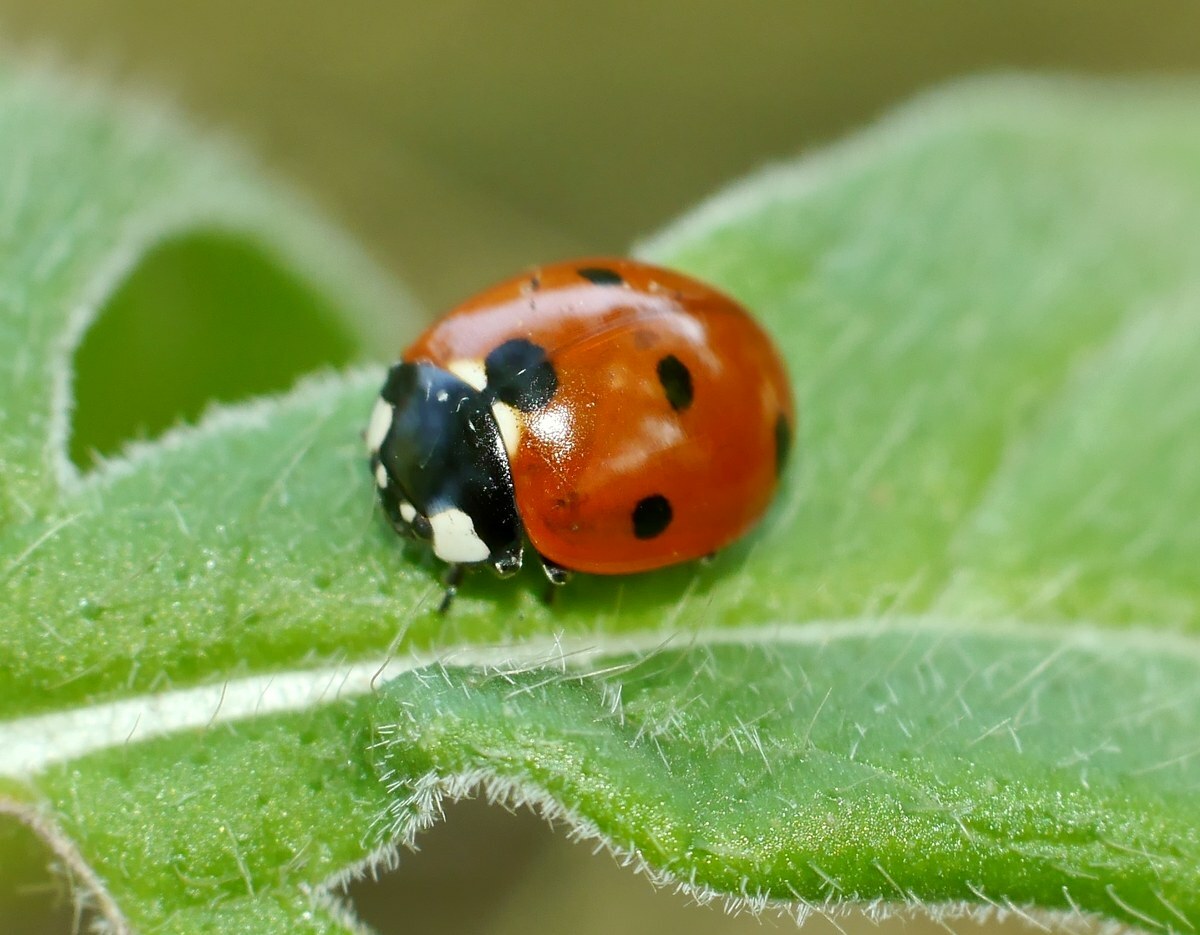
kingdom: Animalia
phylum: Arthropoda
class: Insecta
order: Coleoptera
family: Coccinellidae
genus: Coccinella
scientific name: Coccinella septempunctata
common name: Sevenspotted lady beetle
